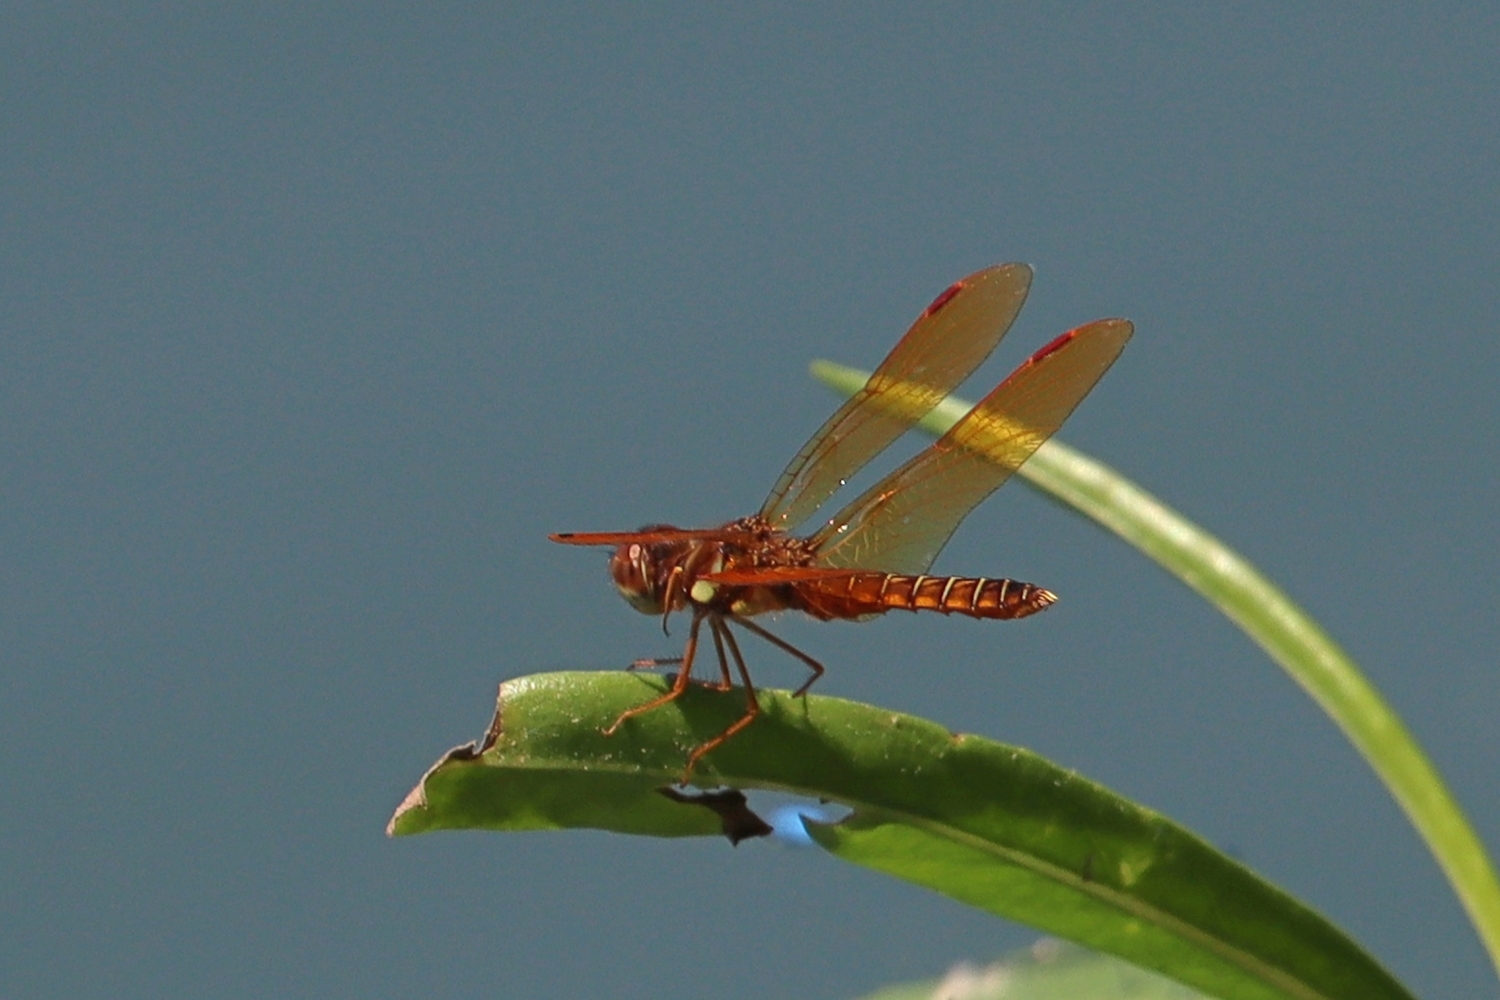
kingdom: Animalia
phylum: Arthropoda
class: Insecta
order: Odonata
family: Libellulidae
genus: Perithemis
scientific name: Perithemis tenera
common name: Eastern amberwing
